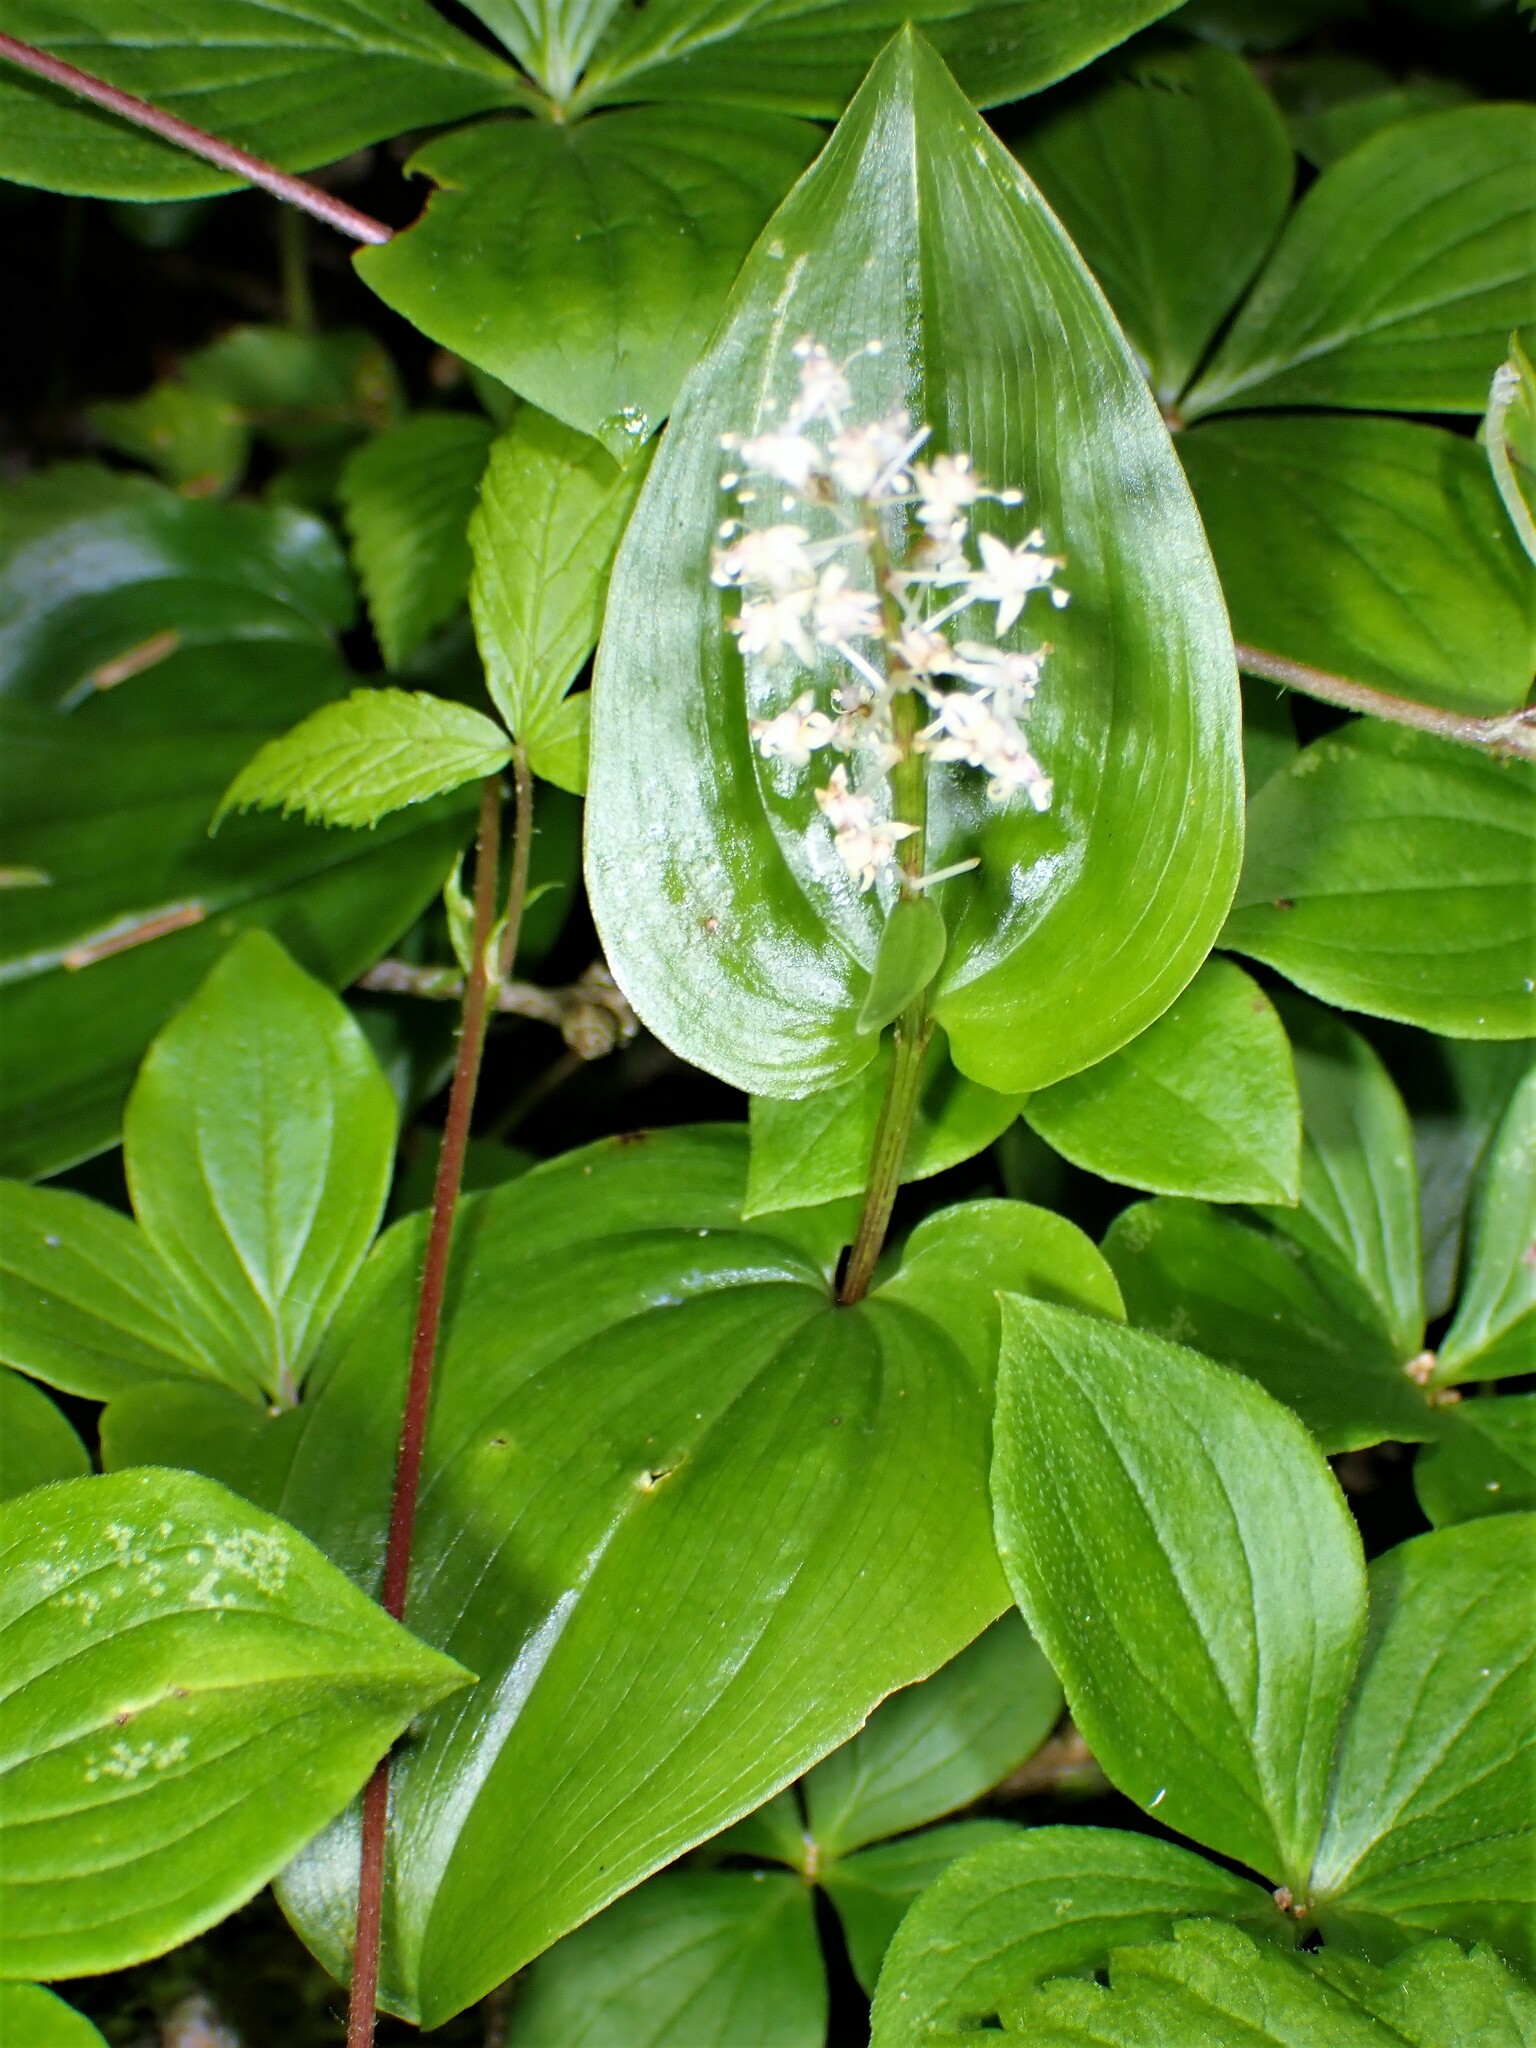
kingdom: Plantae
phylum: Tracheophyta
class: Liliopsida
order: Asparagales
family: Asparagaceae
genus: Maianthemum
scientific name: Maianthemum canadense
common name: False lily-of-the-valley
